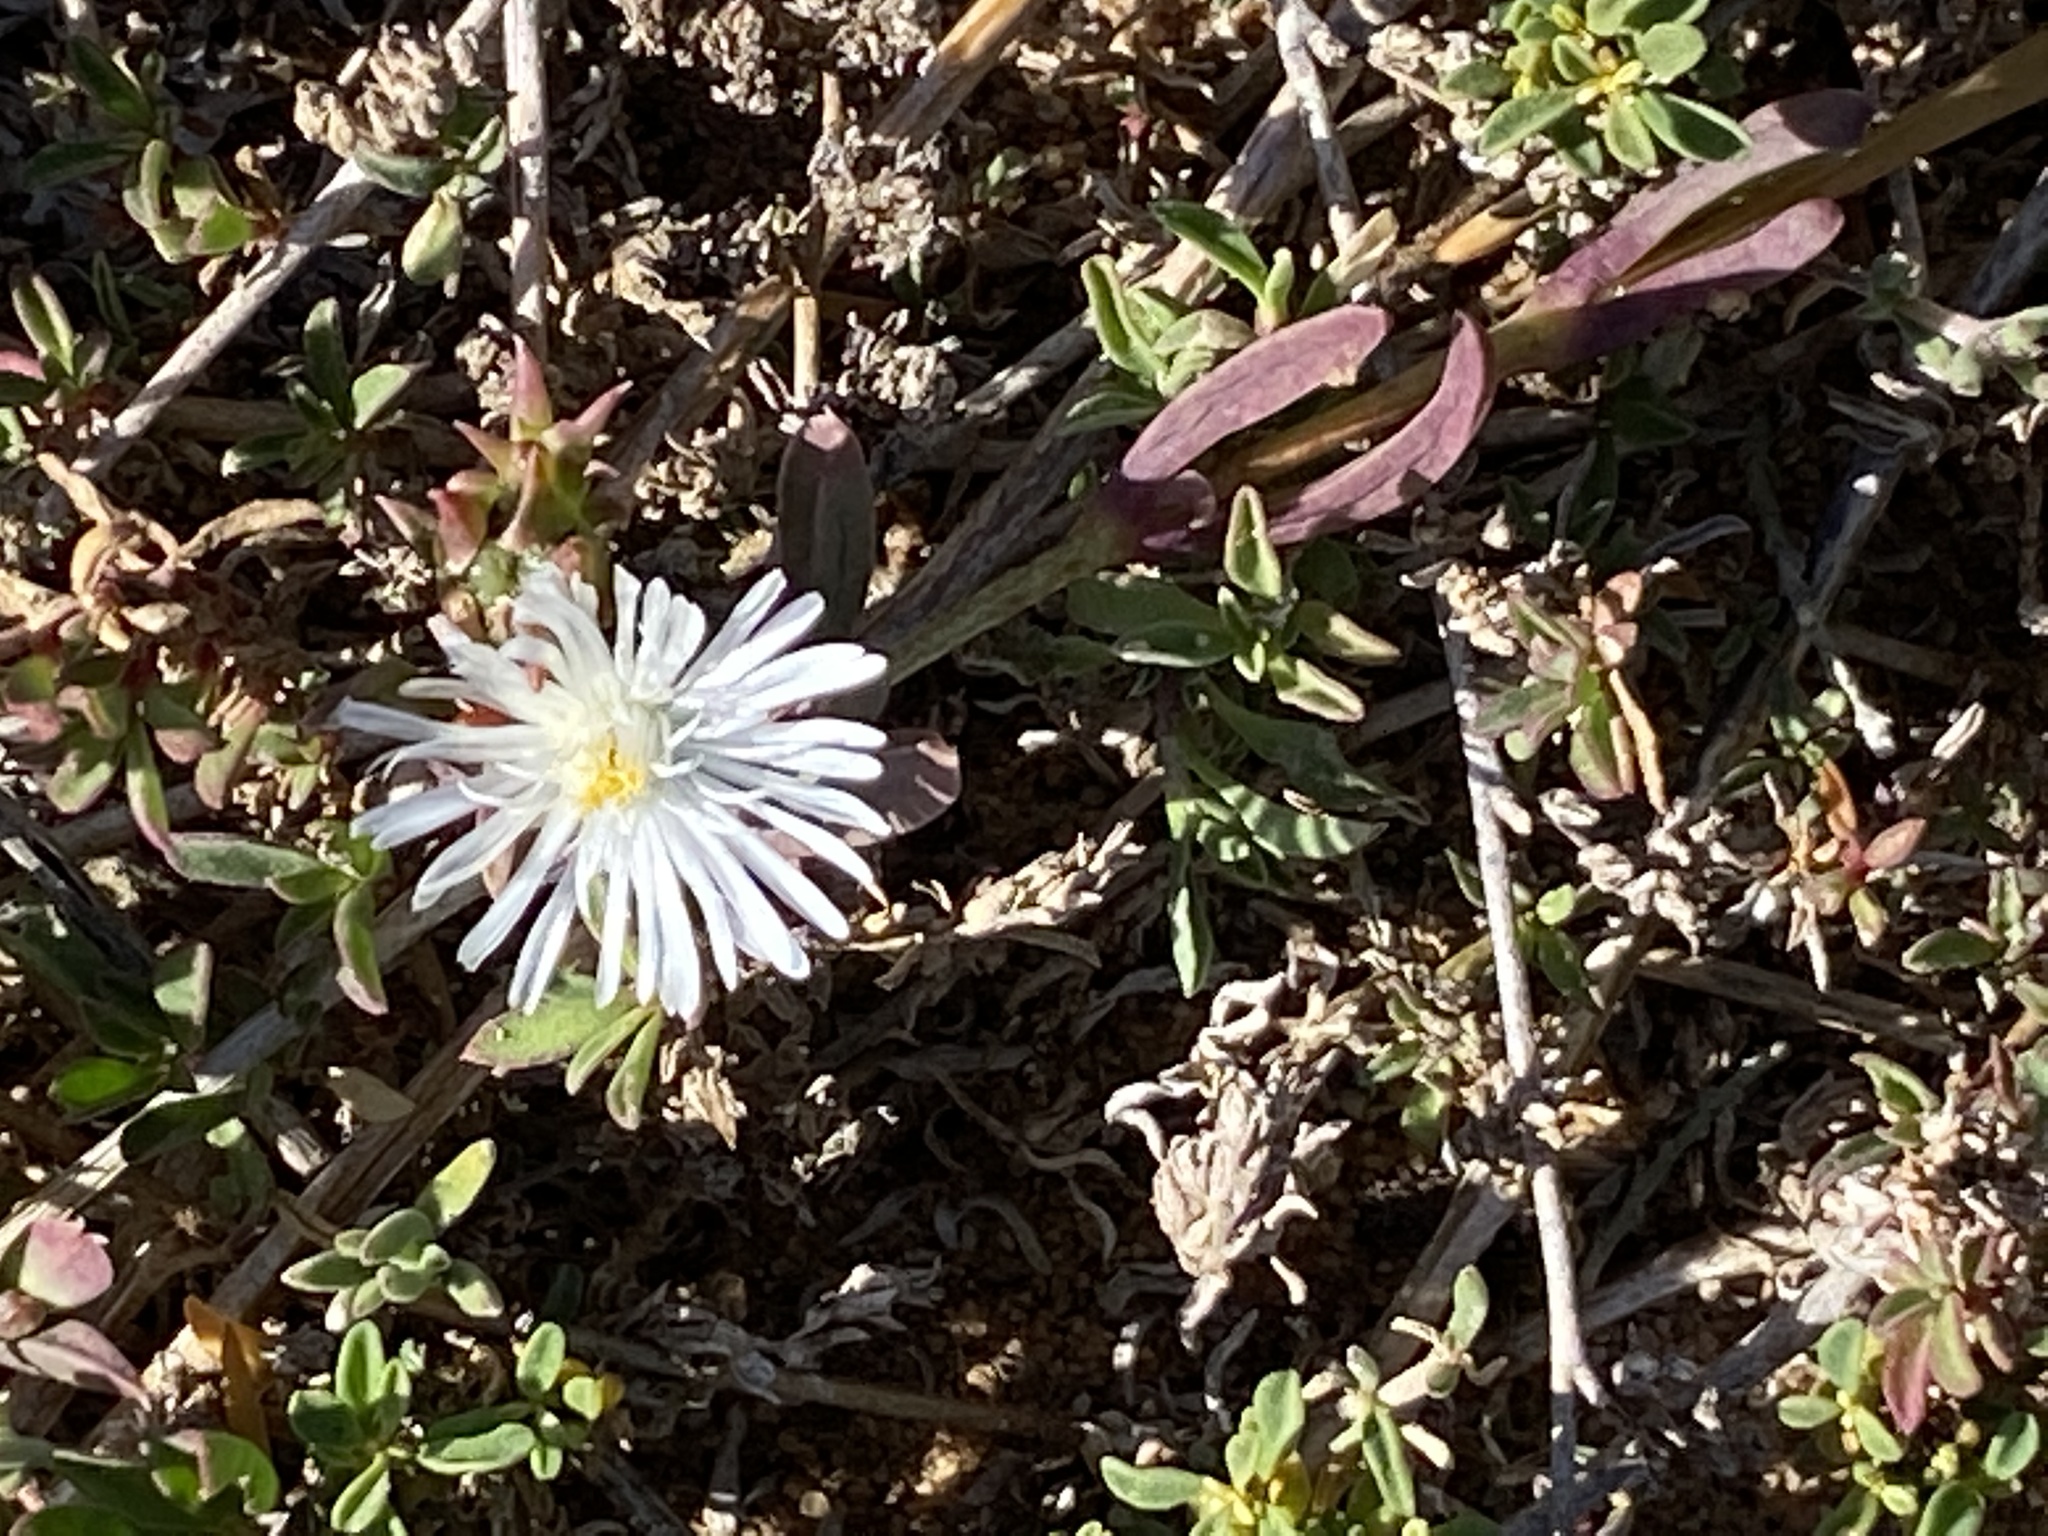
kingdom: Plantae
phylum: Tracheophyta
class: Magnoliopsida
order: Caryophyllales
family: Aizoaceae
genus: Delosperma
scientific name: Delosperma litorale
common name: Seaside delosperma
